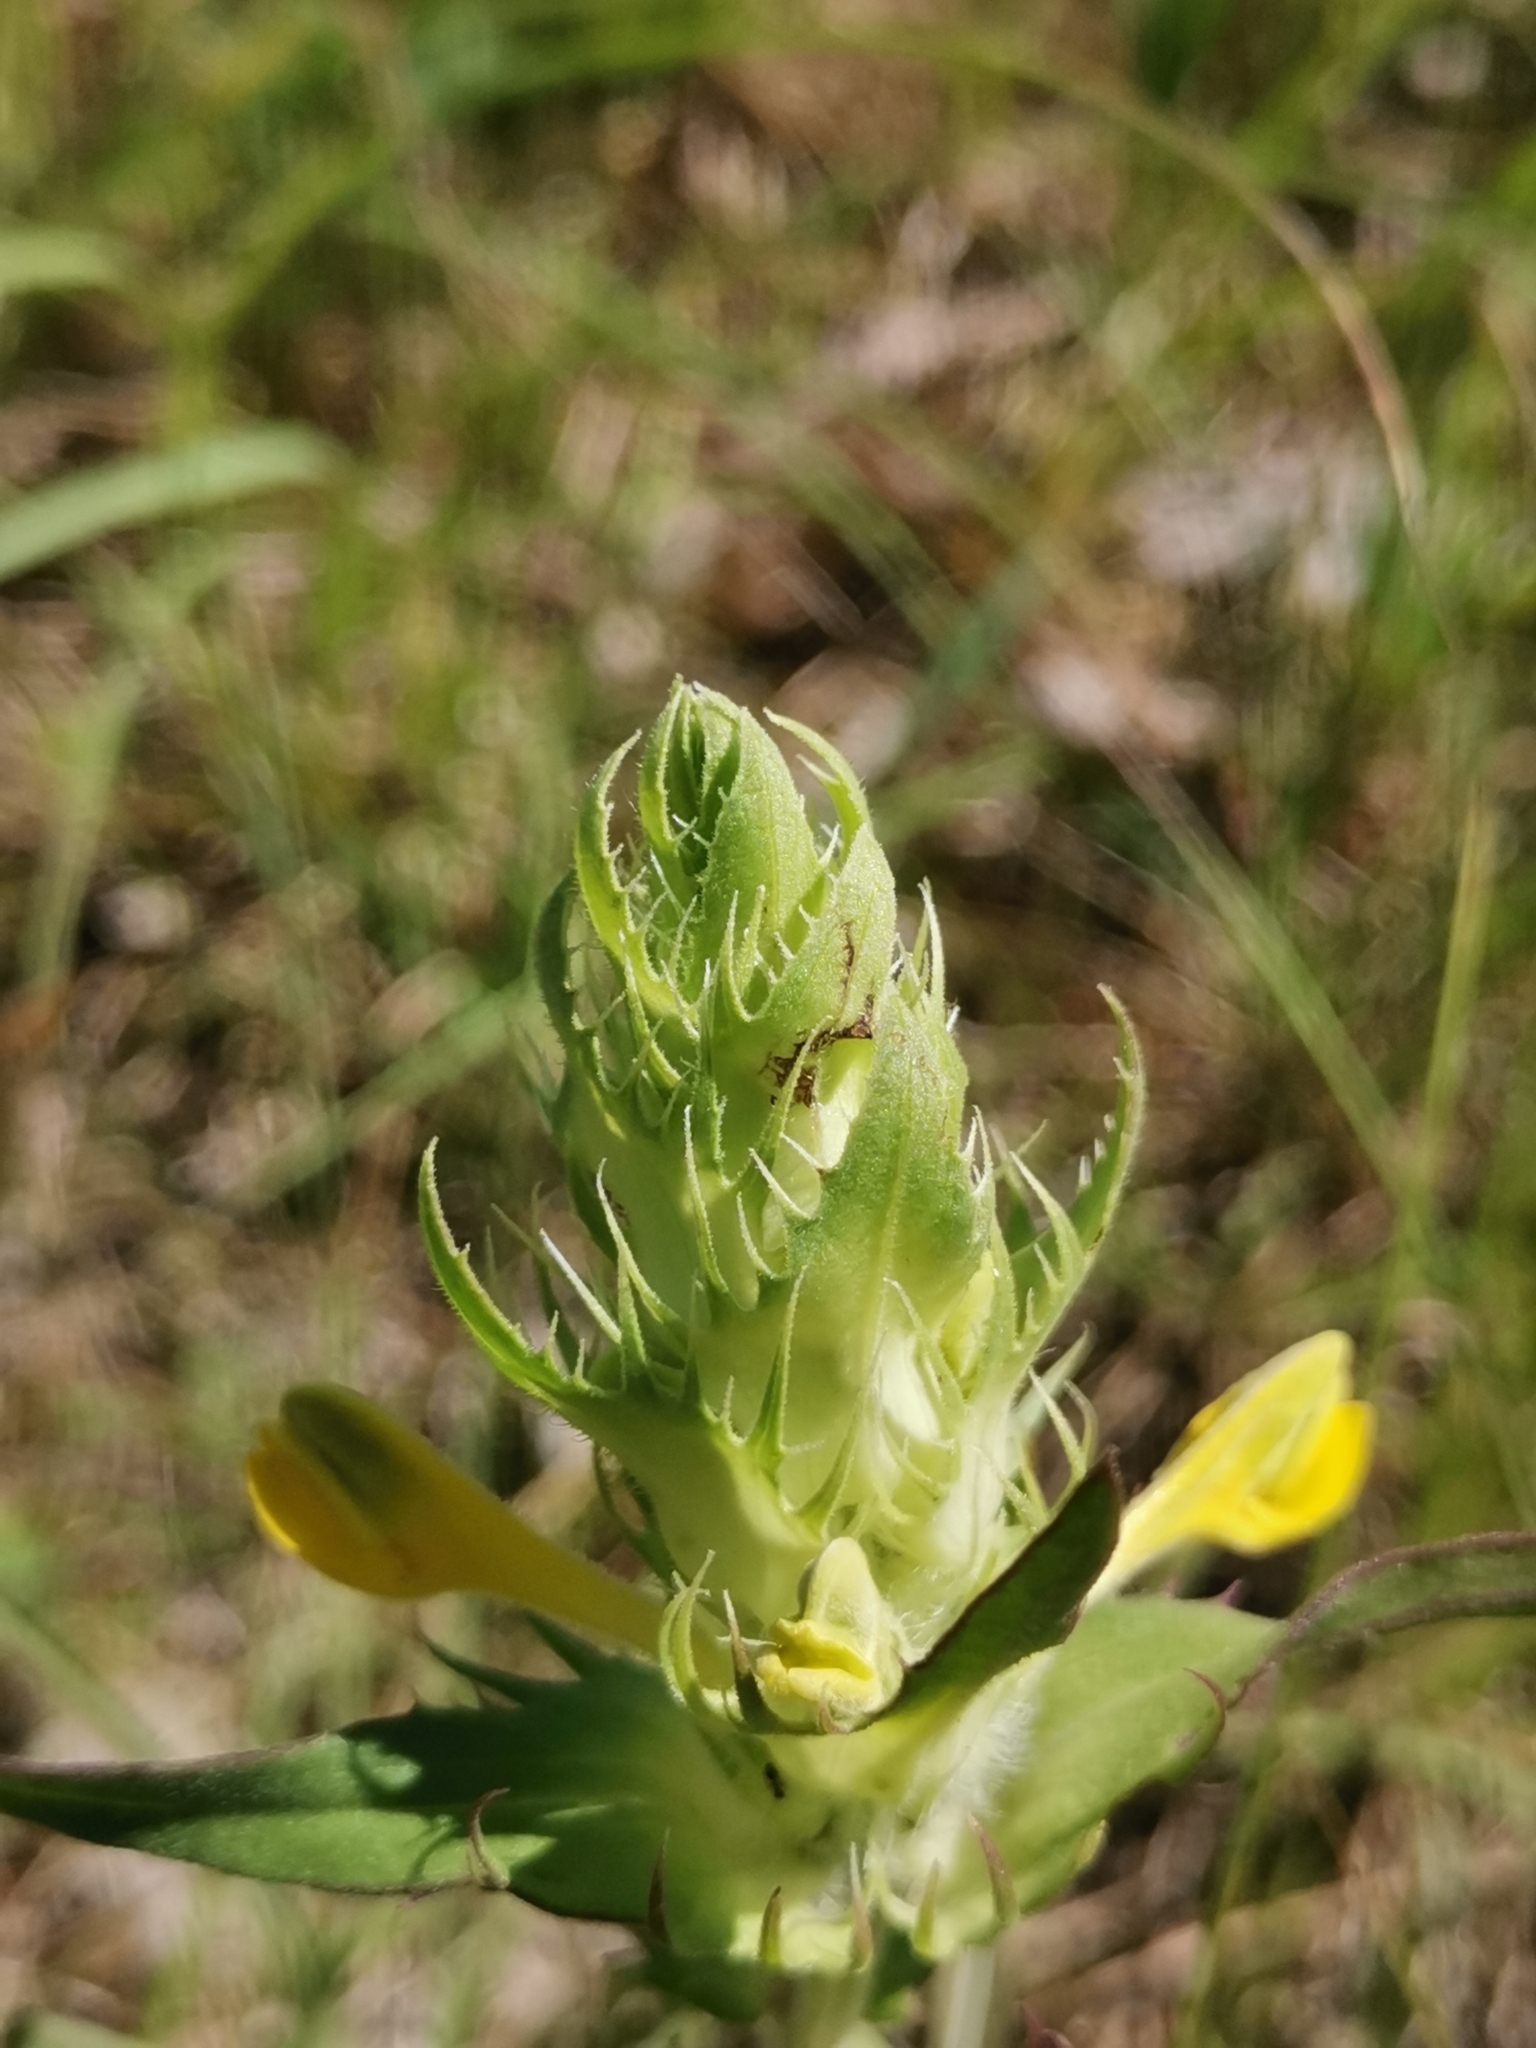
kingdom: Plantae
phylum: Tracheophyta
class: Magnoliopsida
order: Lamiales
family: Orobanchaceae
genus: Melampyrum
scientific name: Melampyrum barbatum
